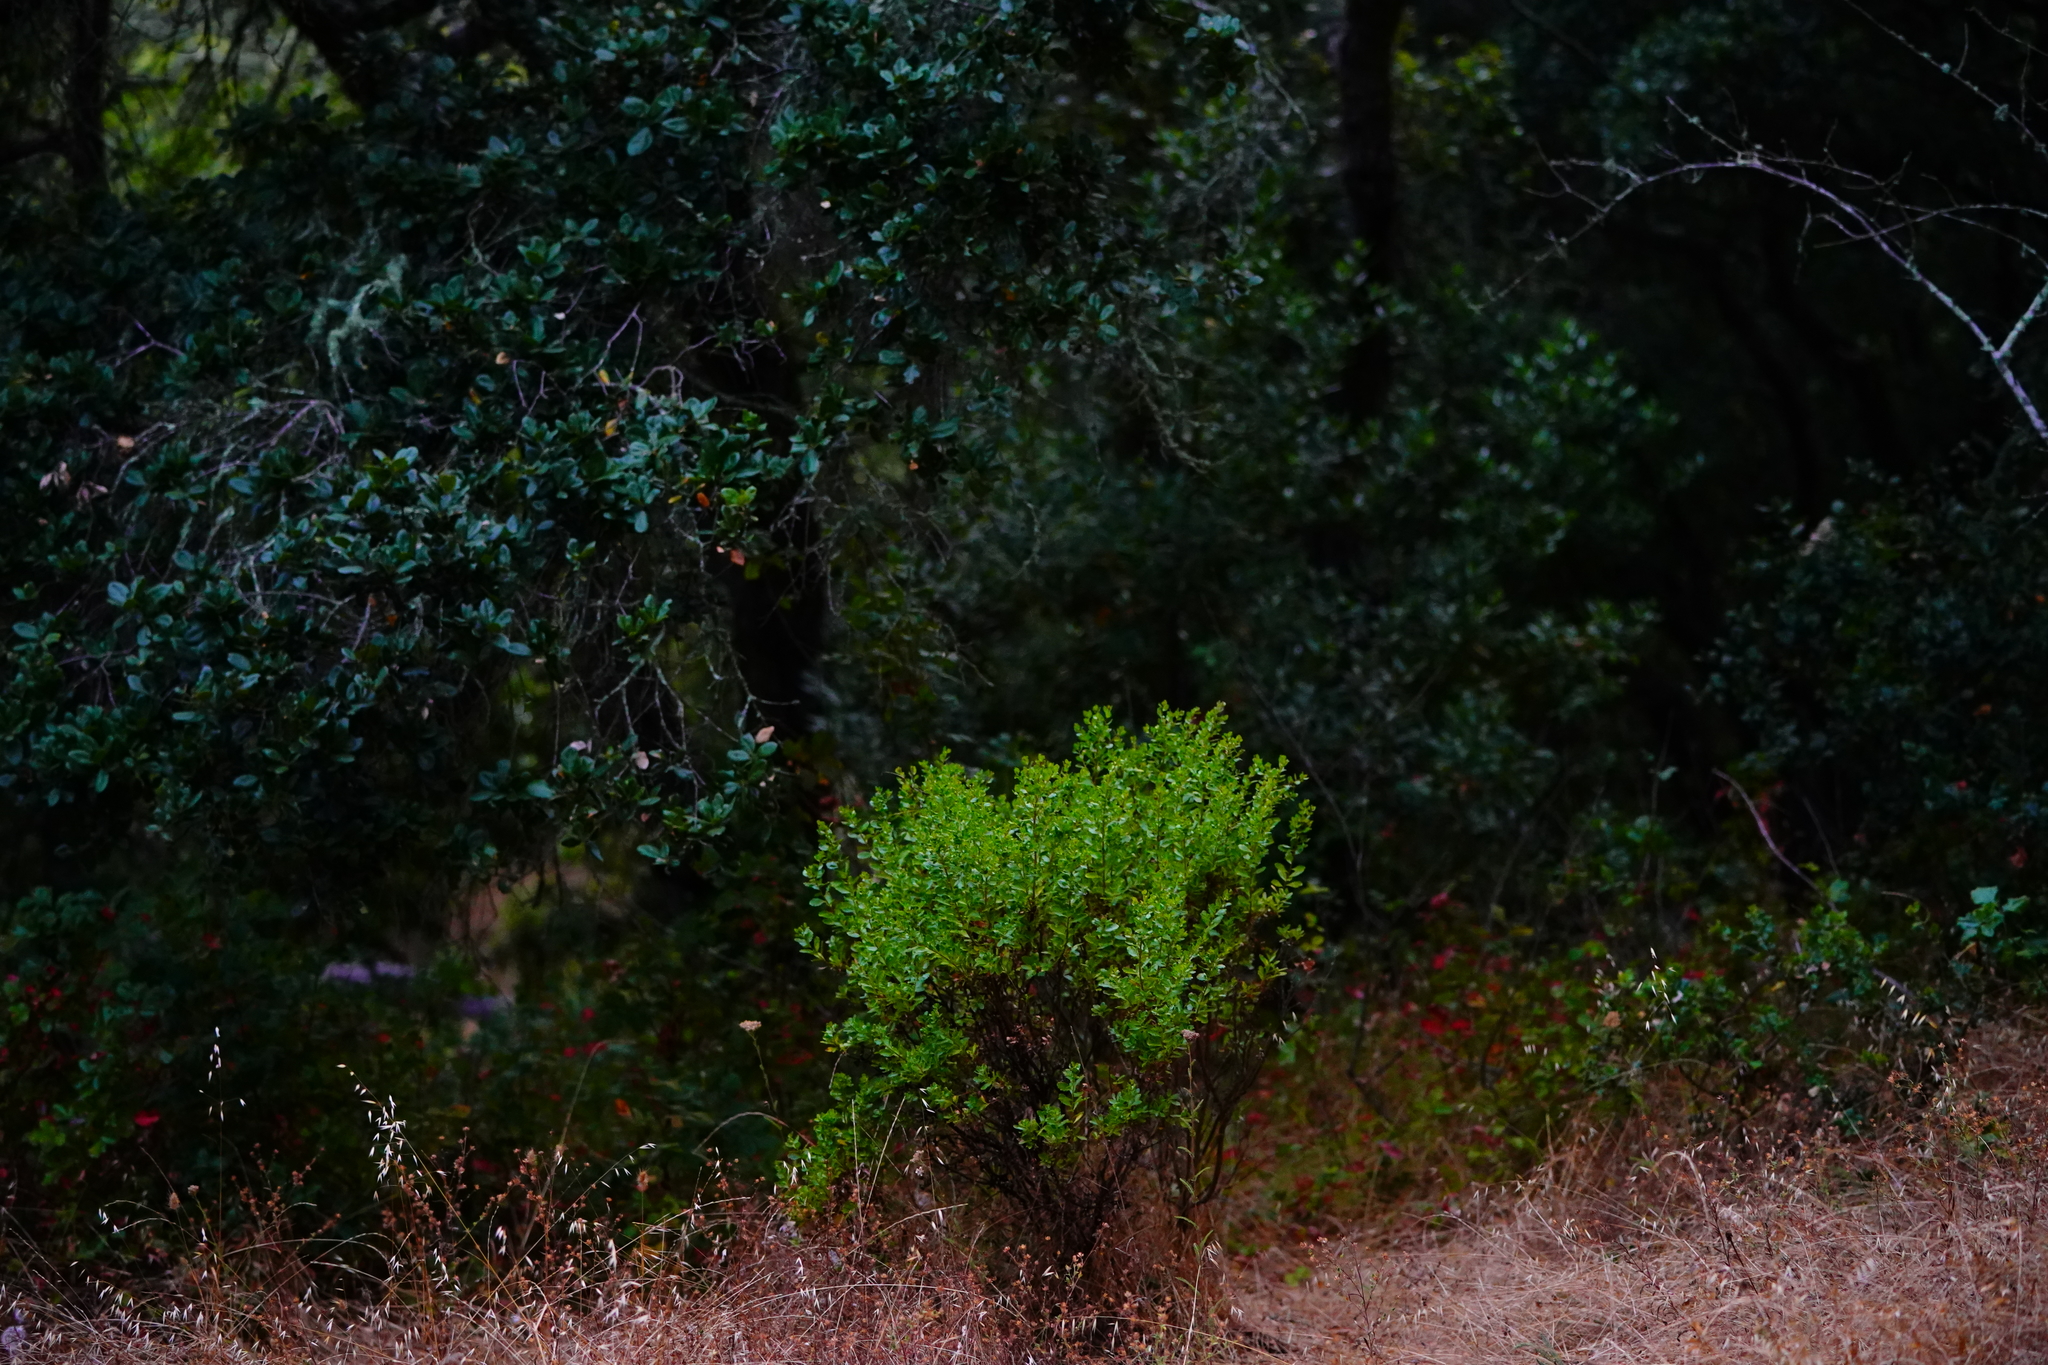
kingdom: Plantae
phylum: Tracheophyta
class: Magnoliopsida
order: Asterales
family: Asteraceae
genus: Baccharis
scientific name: Baccharis pilularis
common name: Coyotebrush
